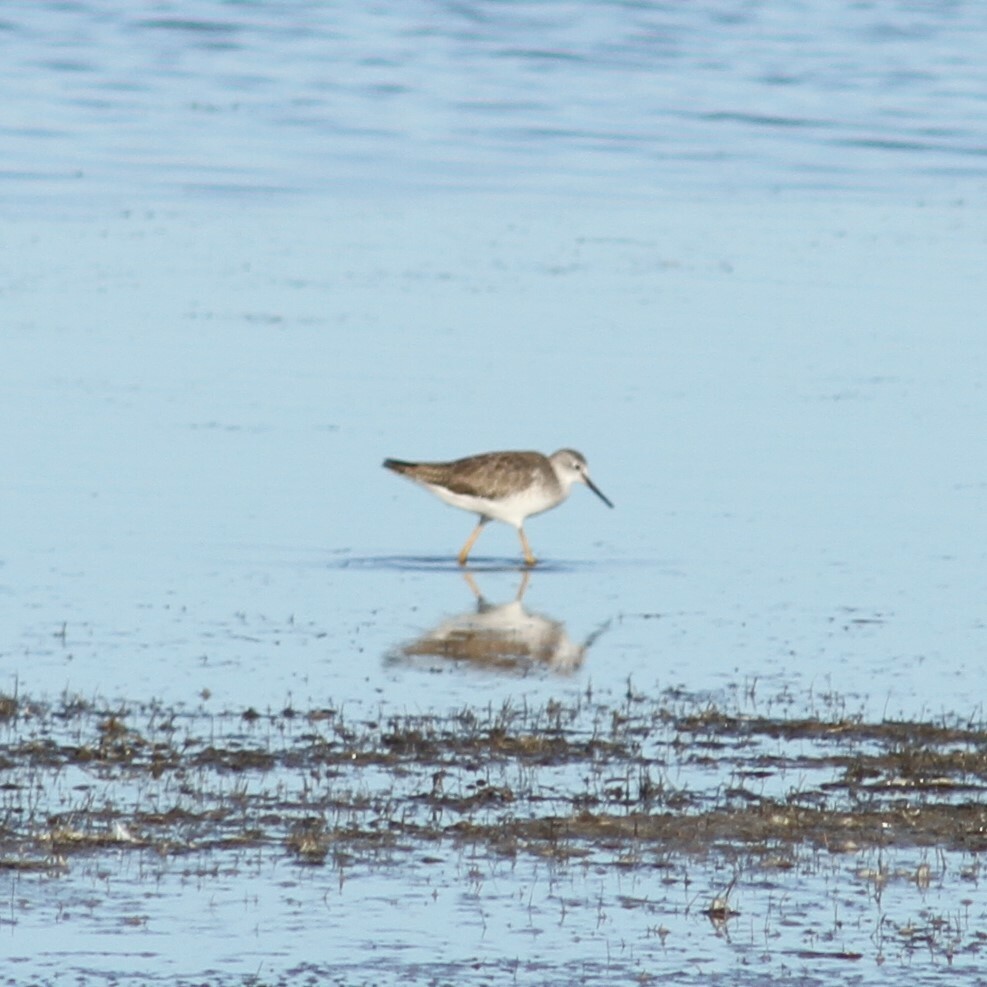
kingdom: Animalia
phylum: Chordata
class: Aves
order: Charadriiformes
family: Scolopacidae
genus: Tringa
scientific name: Tringa melanoleuca
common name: Greater yellowlegs
